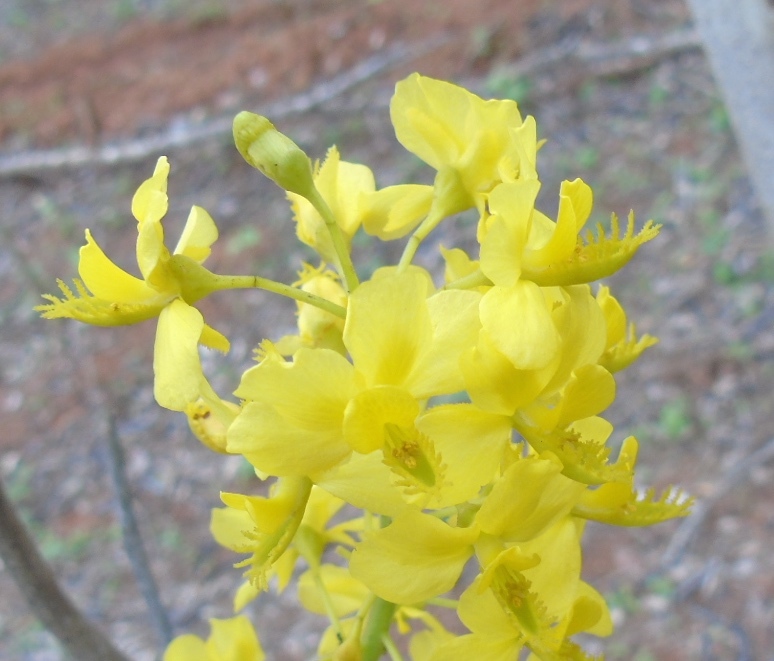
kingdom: Plantae
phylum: Tracheophyta
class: Magnoliopsida
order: Fabales
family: Fabaceae
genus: Coulteria
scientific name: Coulteria platyloba
